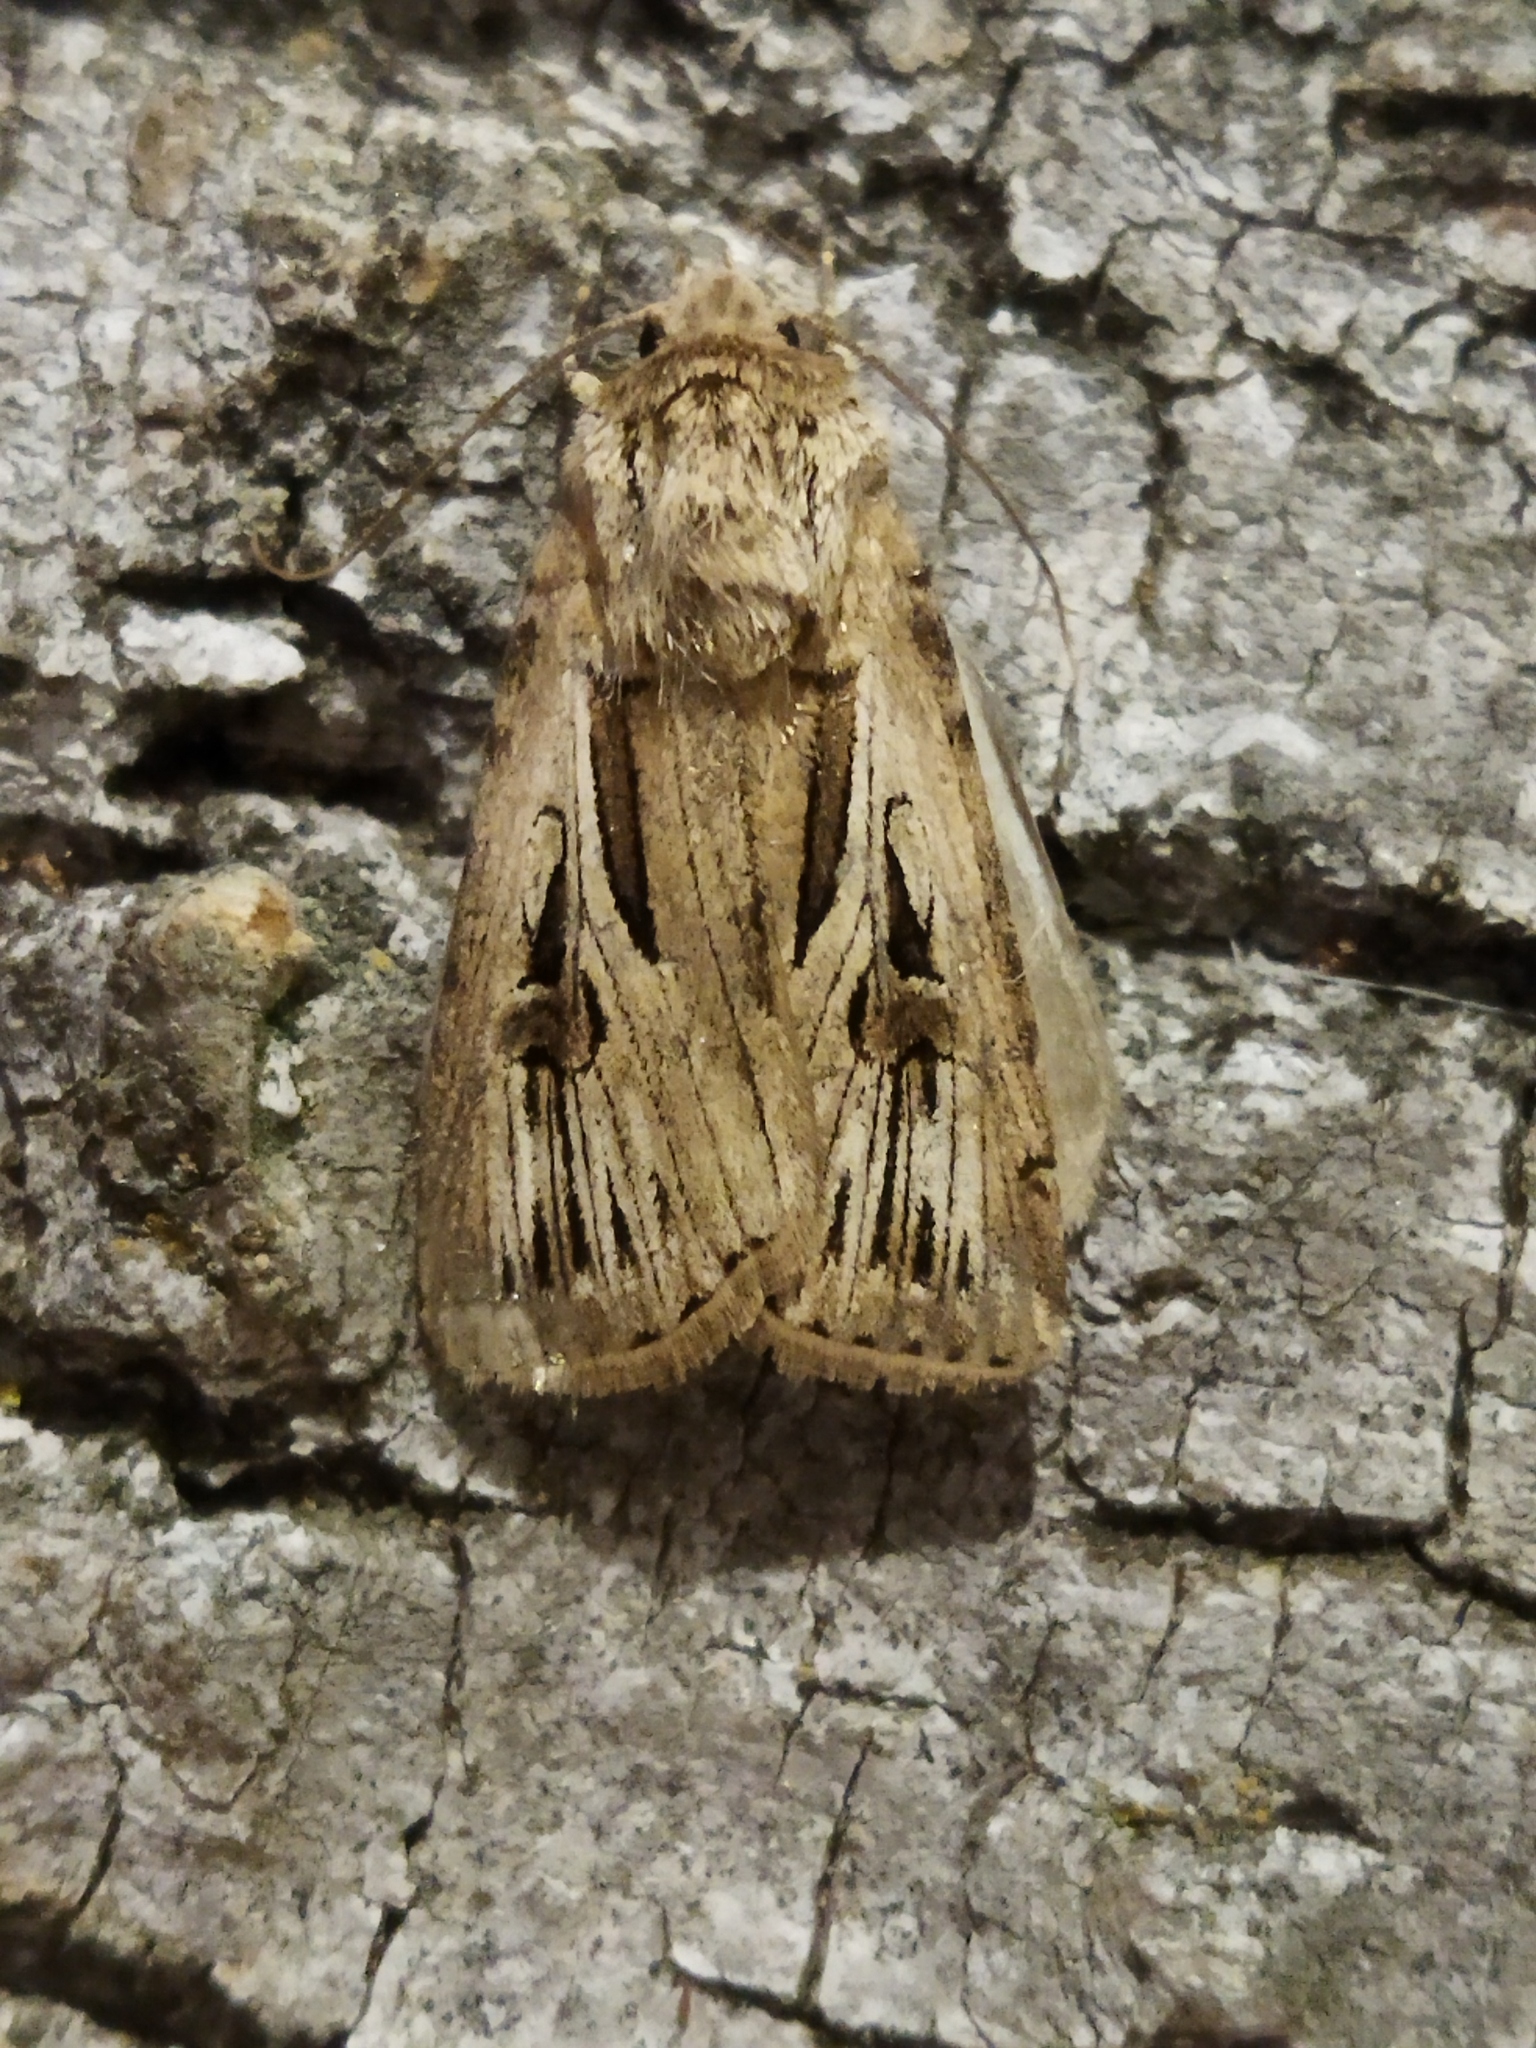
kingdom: Animalia
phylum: Arthropoda
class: Insecta
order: Lepidoptera
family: Noctuidae
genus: Agrotis
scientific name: Agrotis
